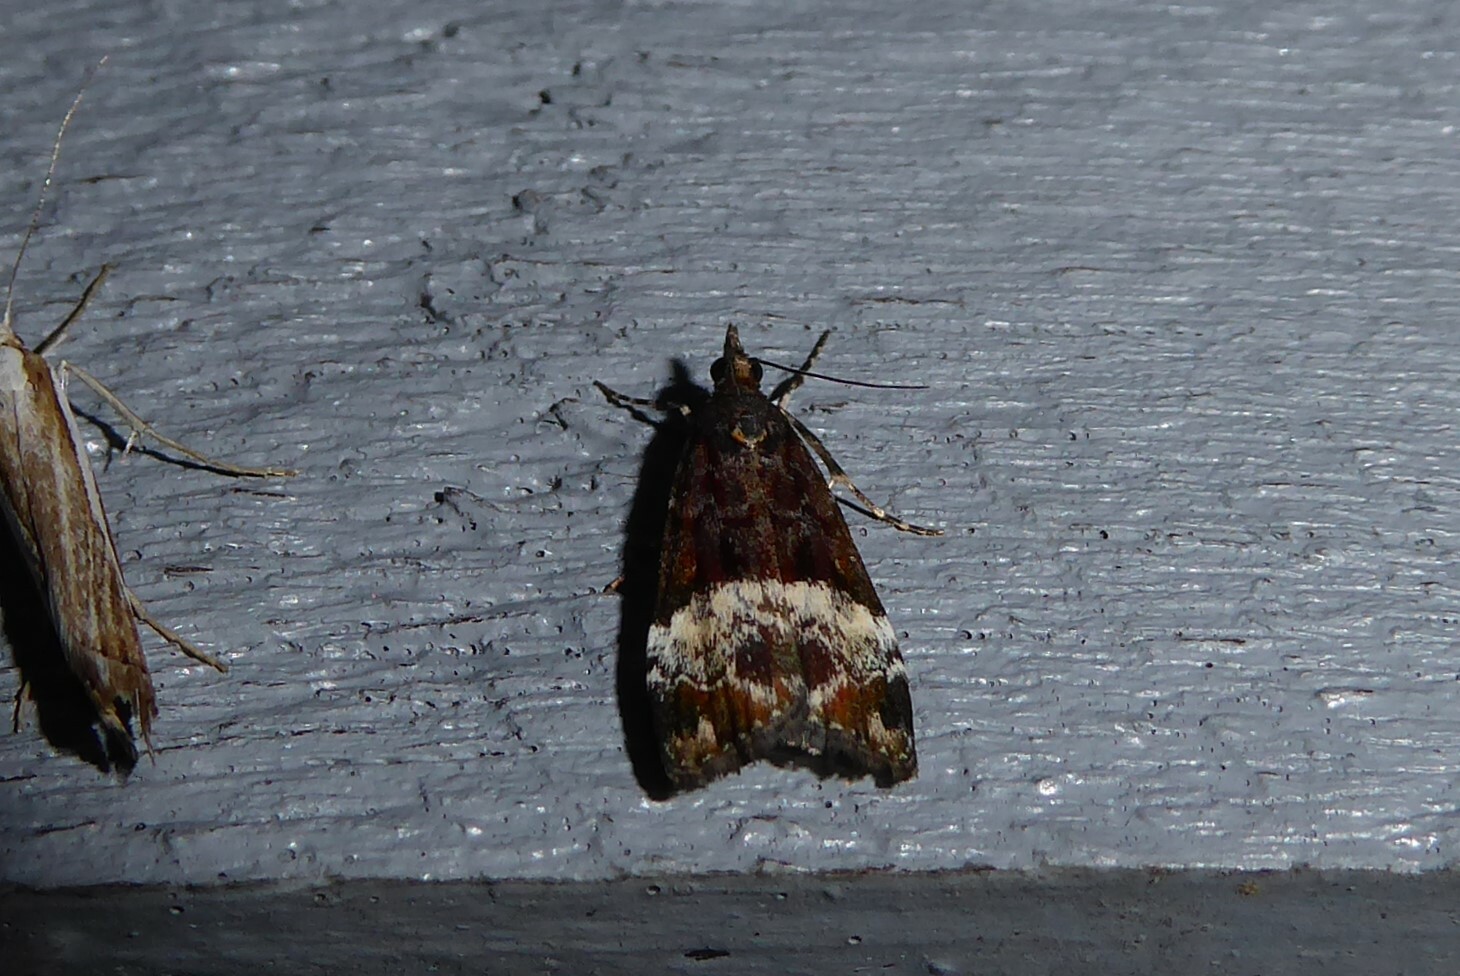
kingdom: Animalia
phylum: Arthropoda
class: Insecta
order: Lepidoptera
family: Crambidae
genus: Scoparia
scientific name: Scoparia minusculalis
